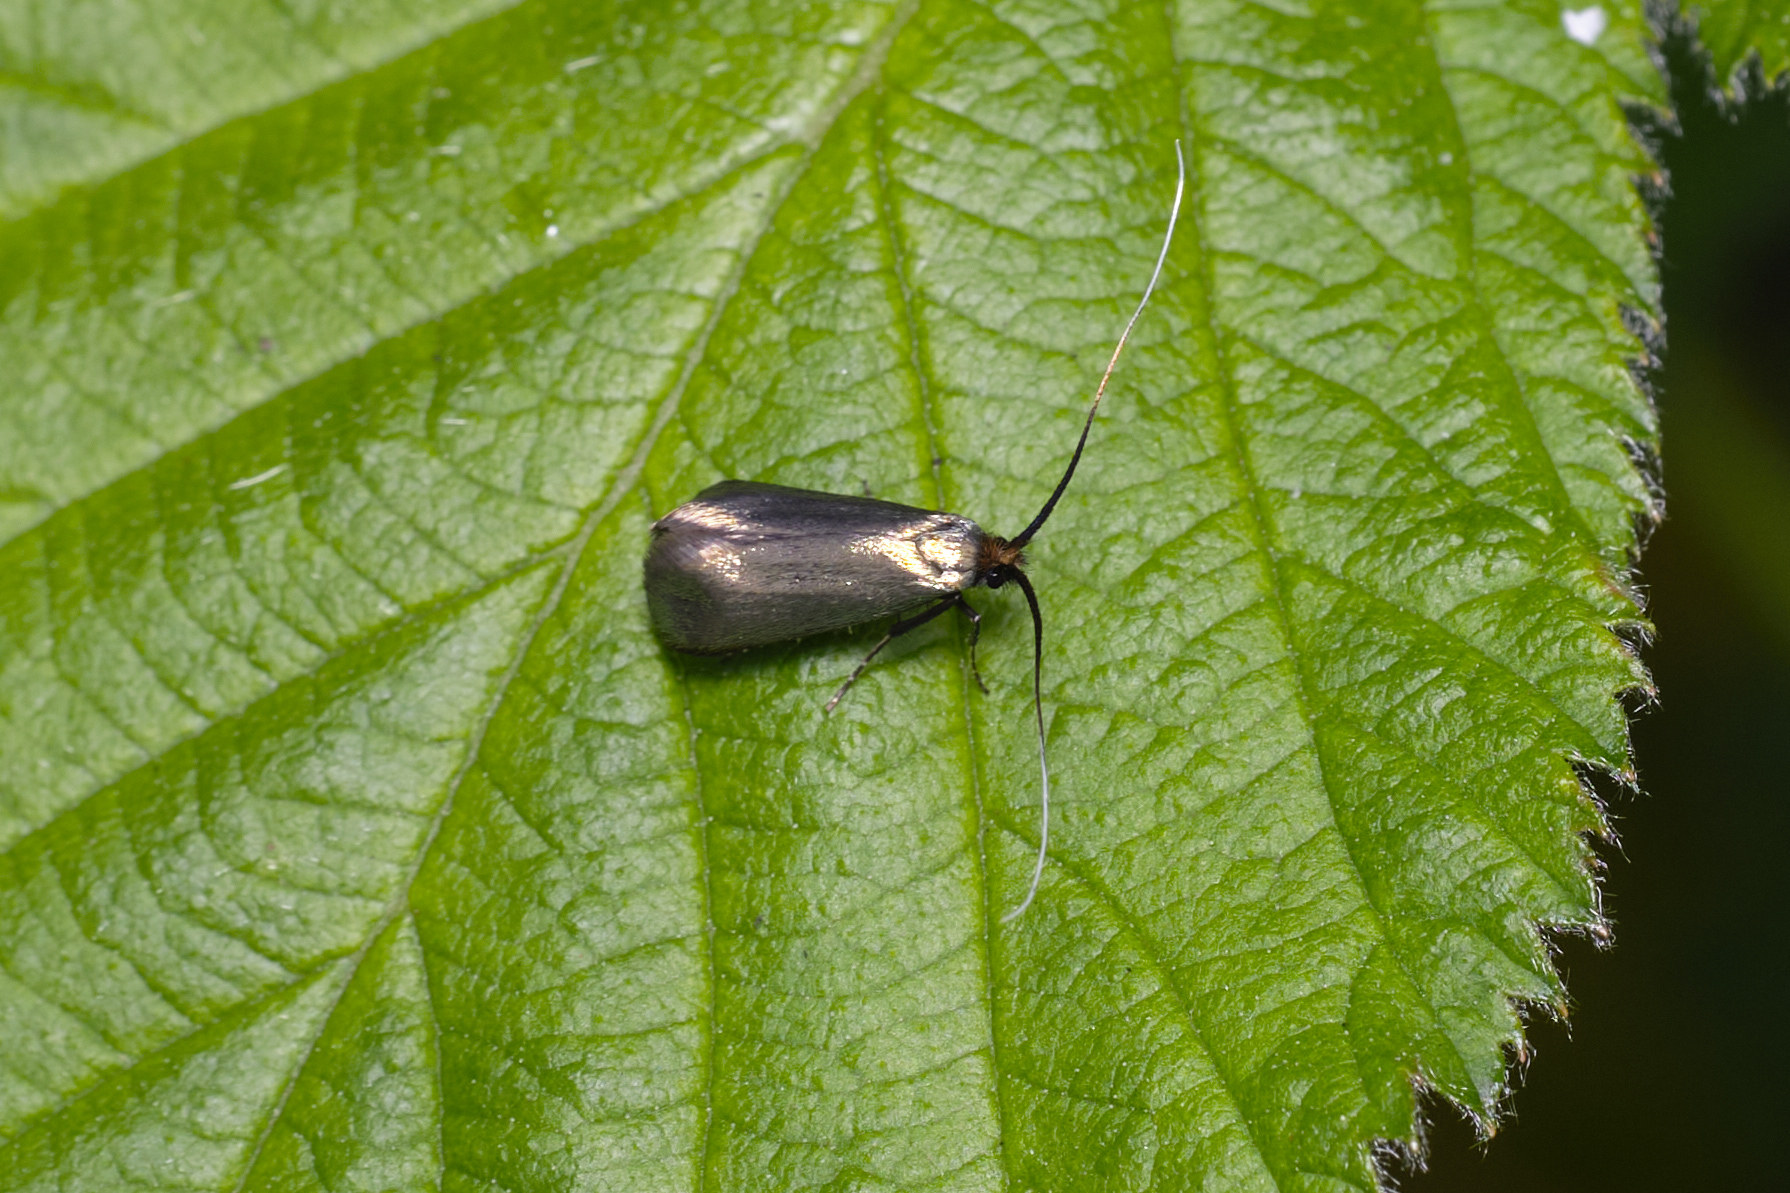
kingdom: Animalia
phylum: Arthropoda
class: Insecta
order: Lepidoptera
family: Adelidae
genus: Adela
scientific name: Adela viridella
